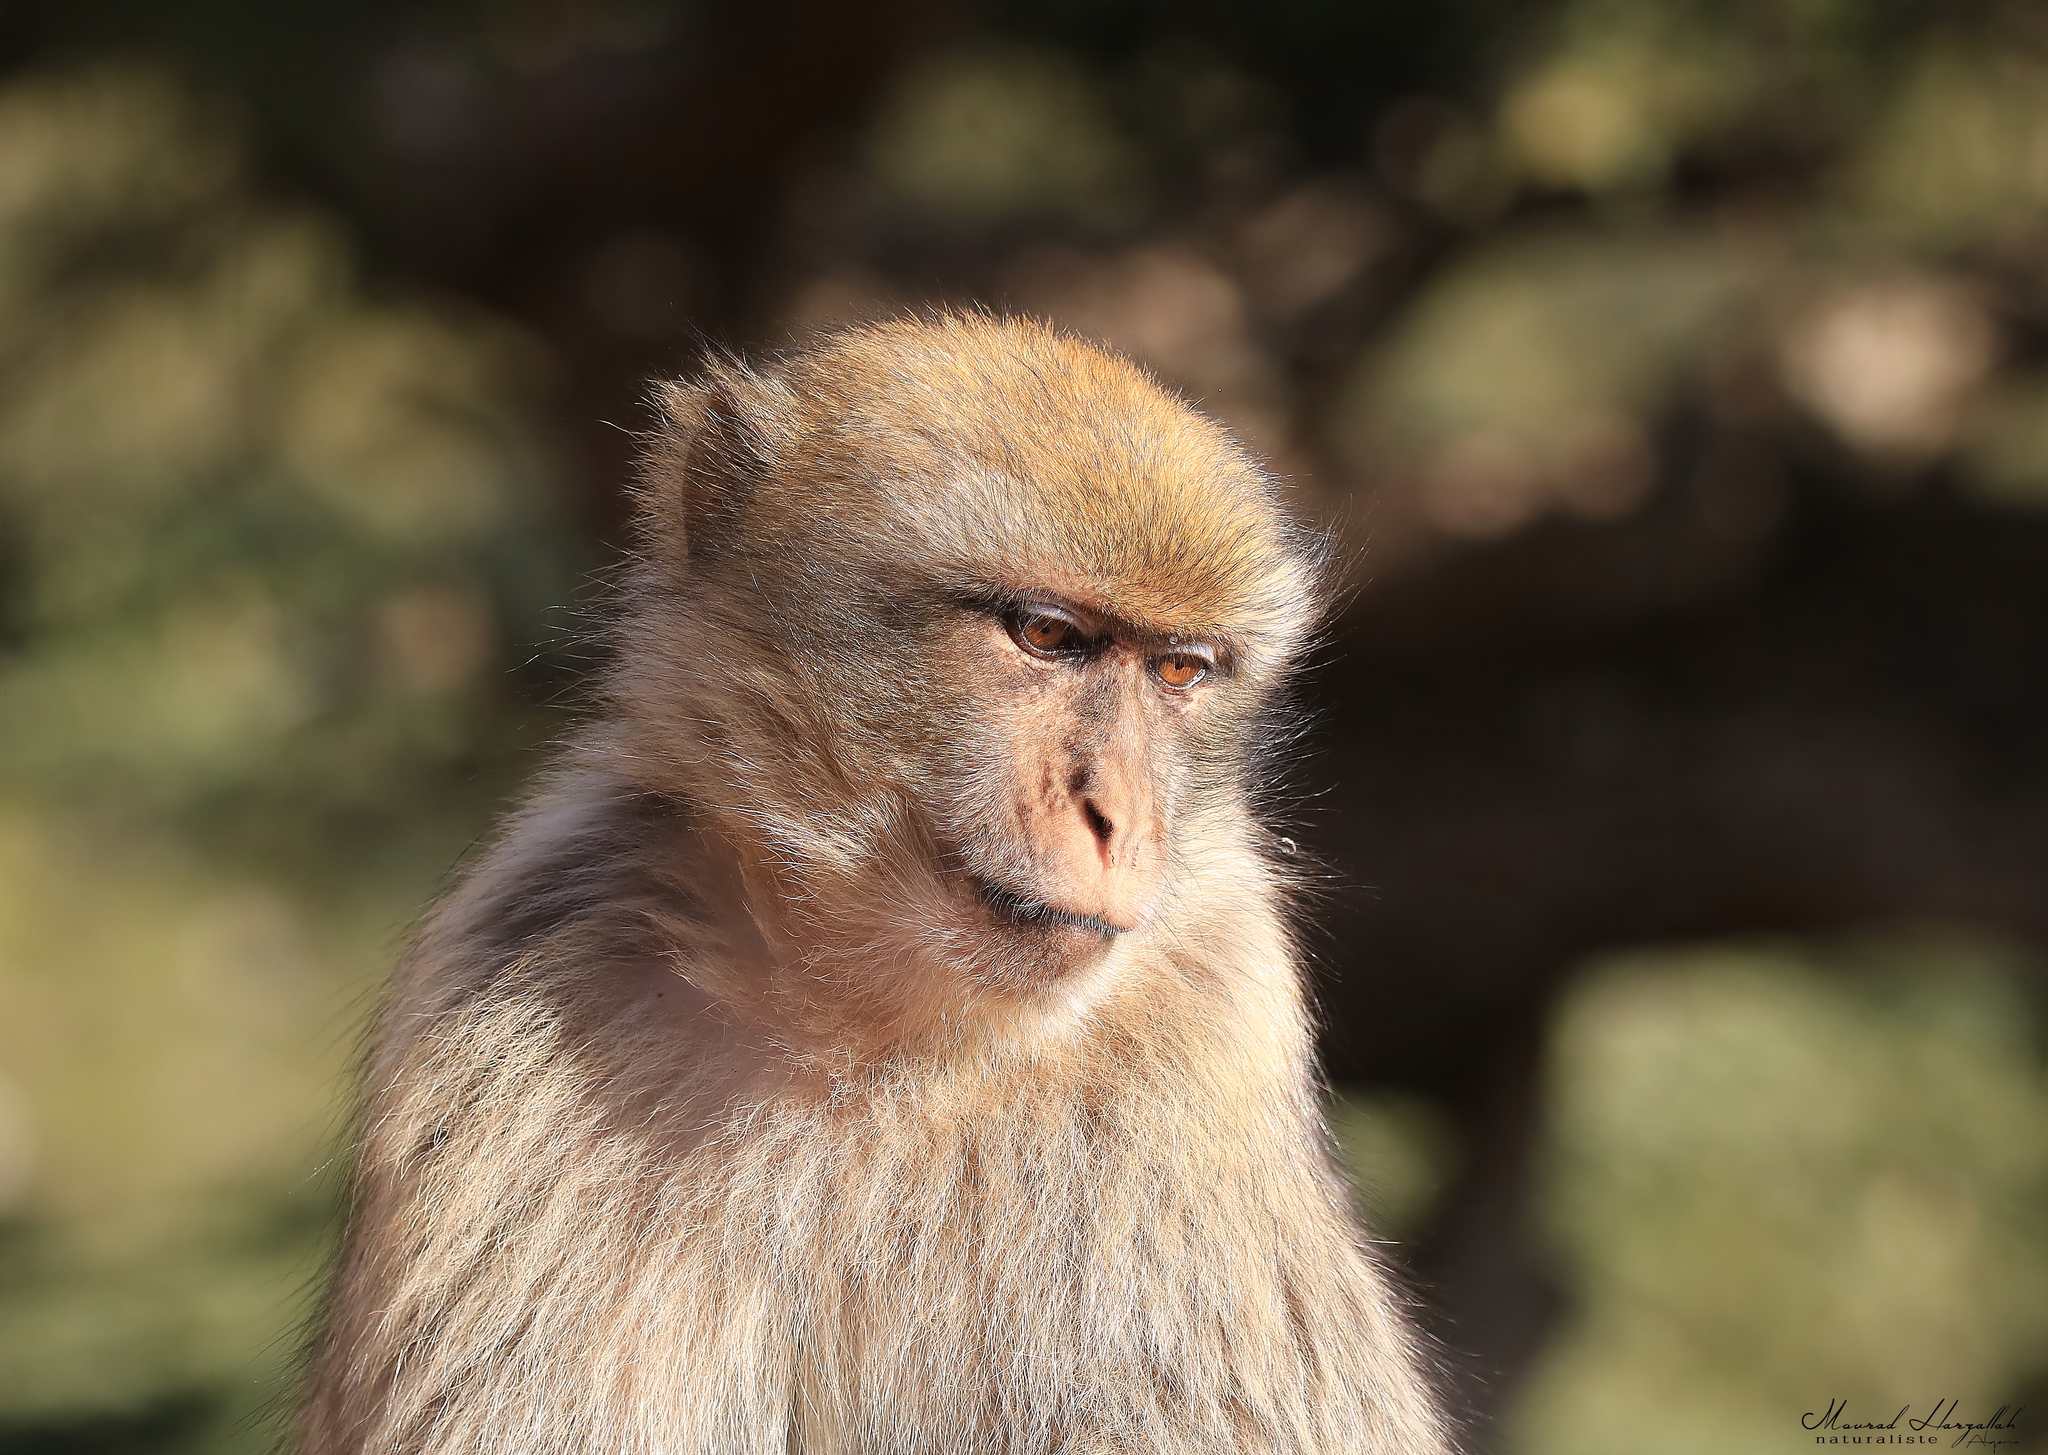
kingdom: Animalia
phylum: Chordata
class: Mammalia
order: Primates
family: Cercopithecidae
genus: Macaca
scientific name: Macaca sylvanus
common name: Barbary macaque
